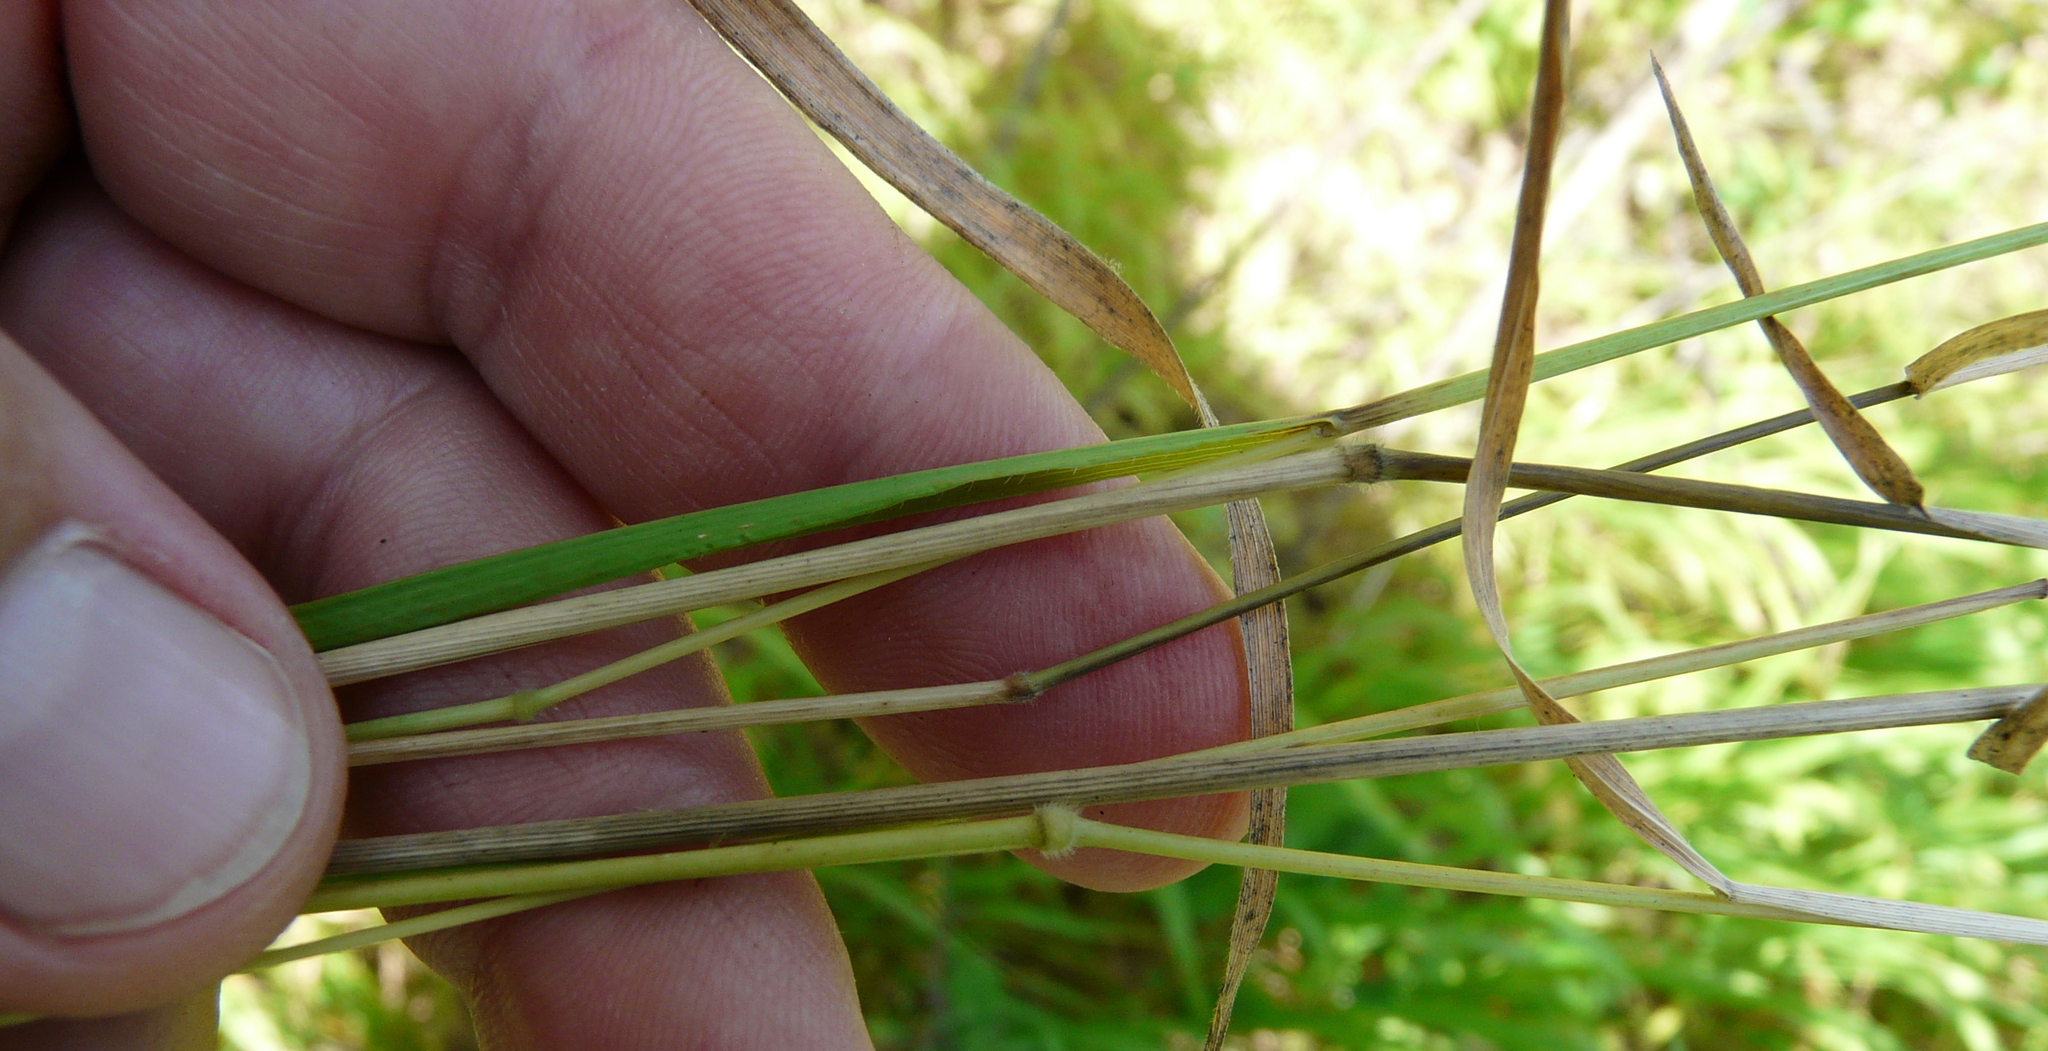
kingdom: Plantae
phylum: Tracheophyta
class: Liliopsida
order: Poales
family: Poaceae
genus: Brachypodium
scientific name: Brachypodium pinnatum
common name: Tor grass
